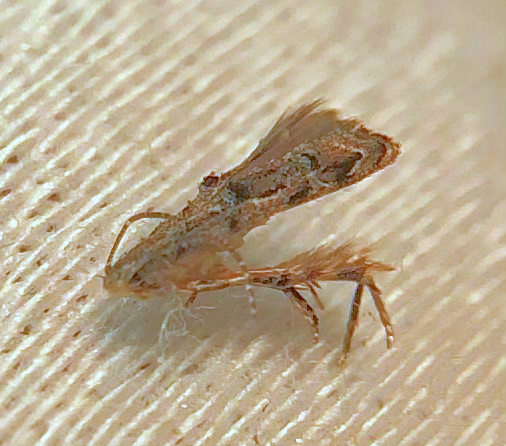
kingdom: Animalia
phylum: Arthropoda
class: Insecta
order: Lepidoptera
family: Momphidae
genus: Mompha
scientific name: Mompha solomoni
